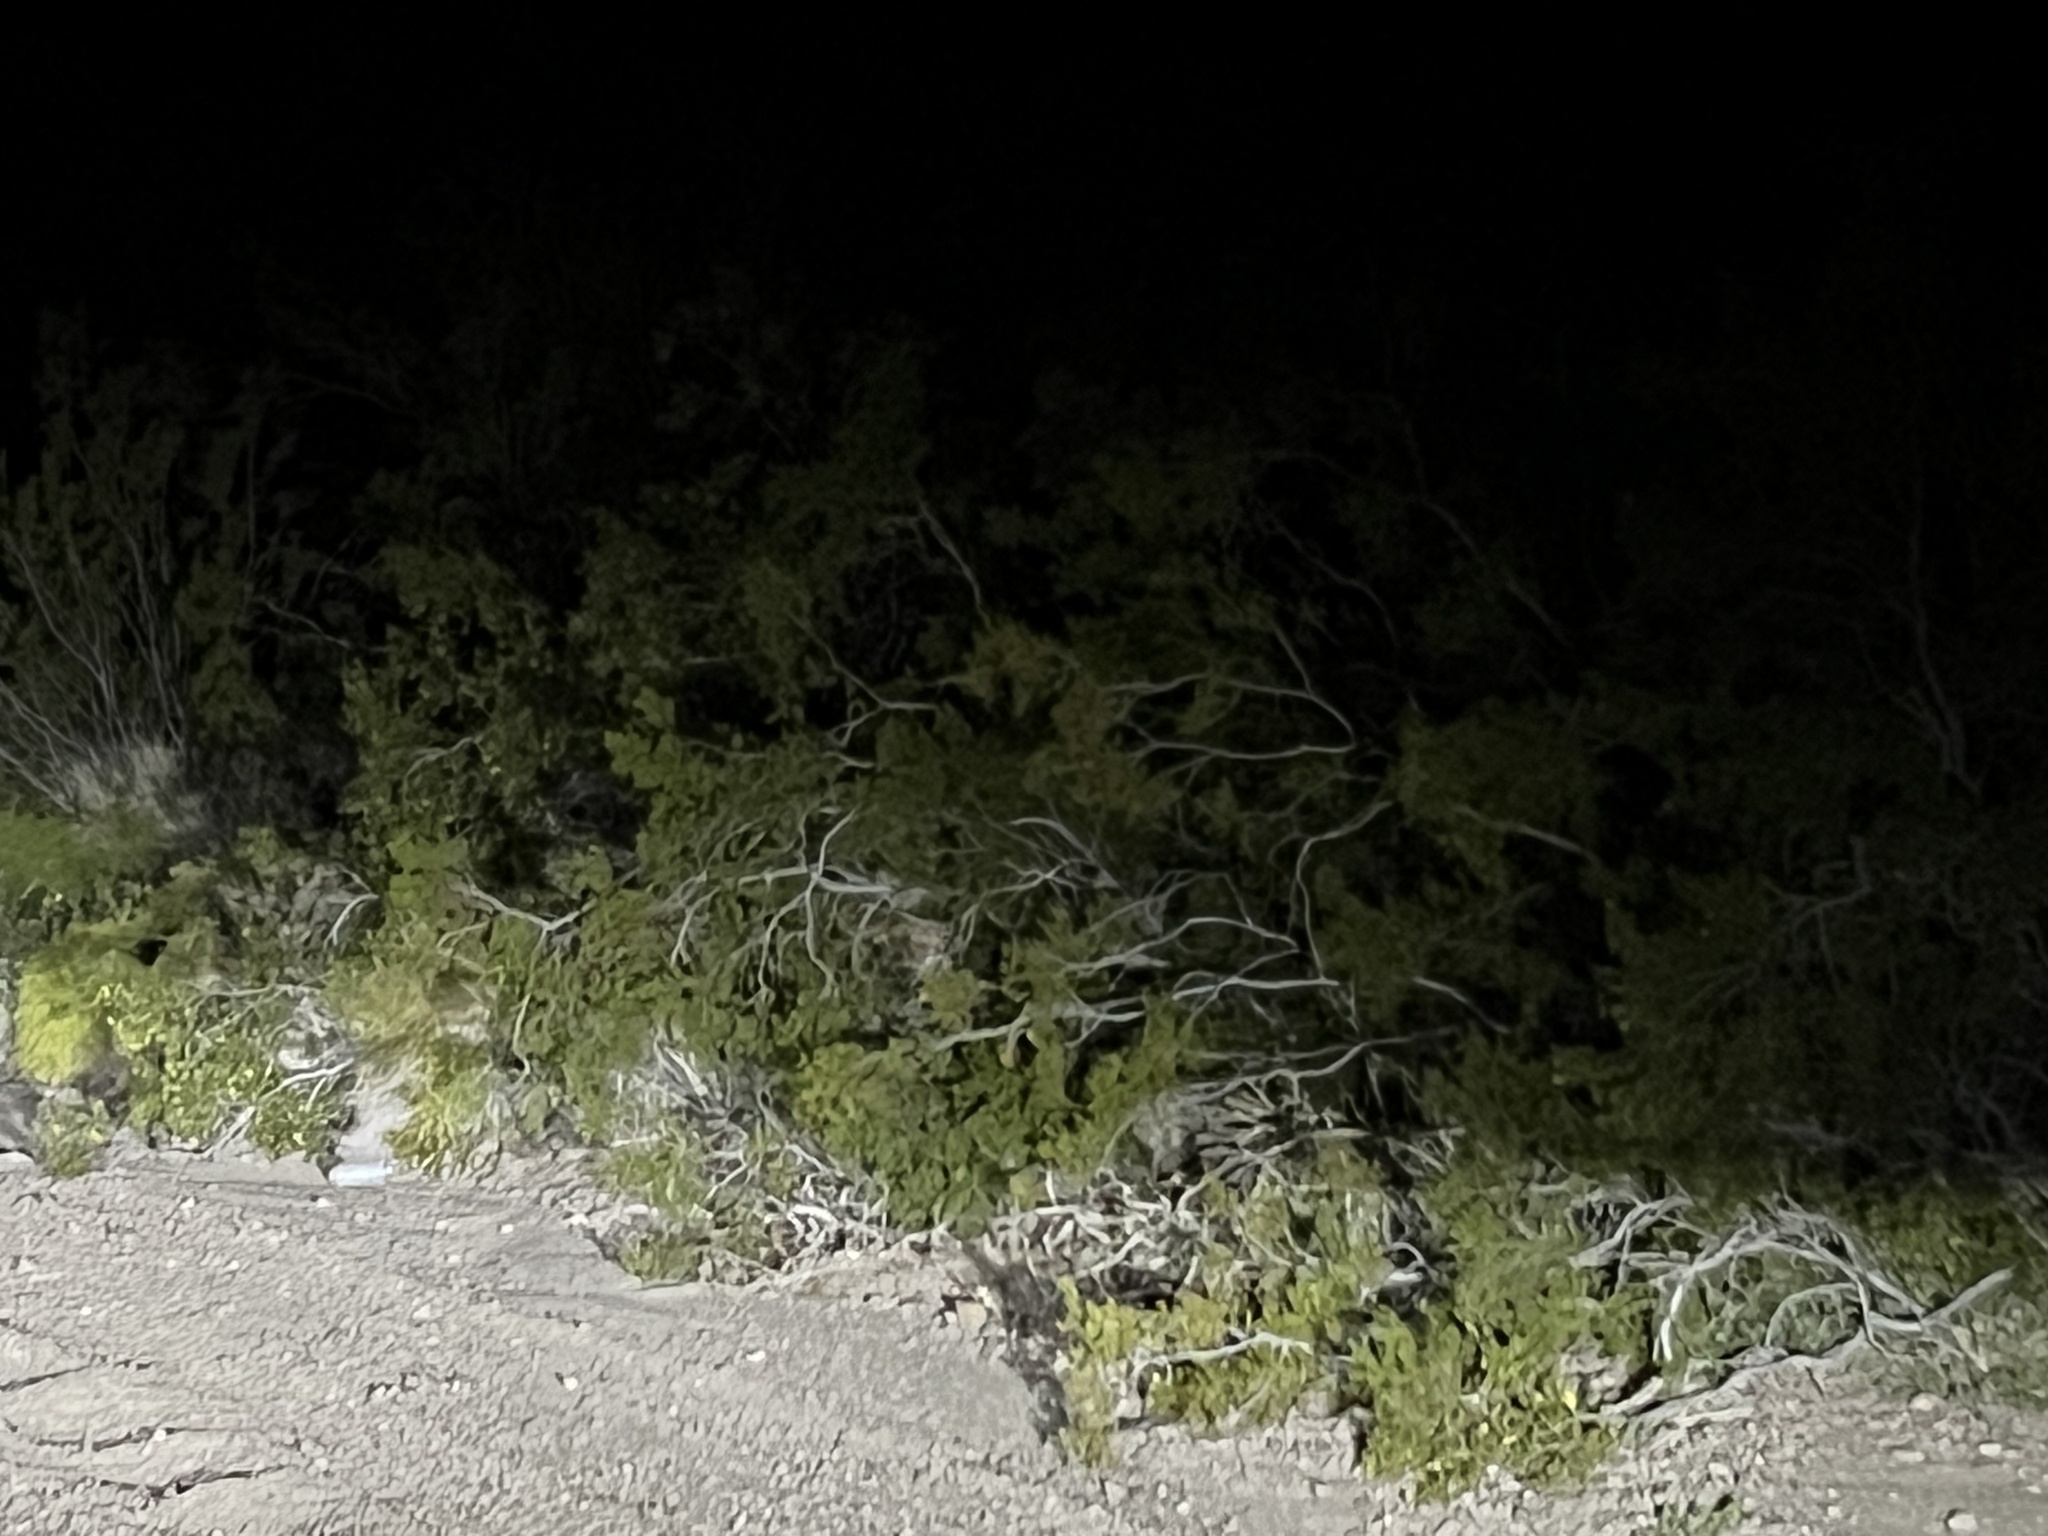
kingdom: Plantae
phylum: Tracheophyta
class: Magnoliopsida
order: Zygophyllales
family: Zygophyllaceae
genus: Larrea
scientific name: Larrea tridentata
